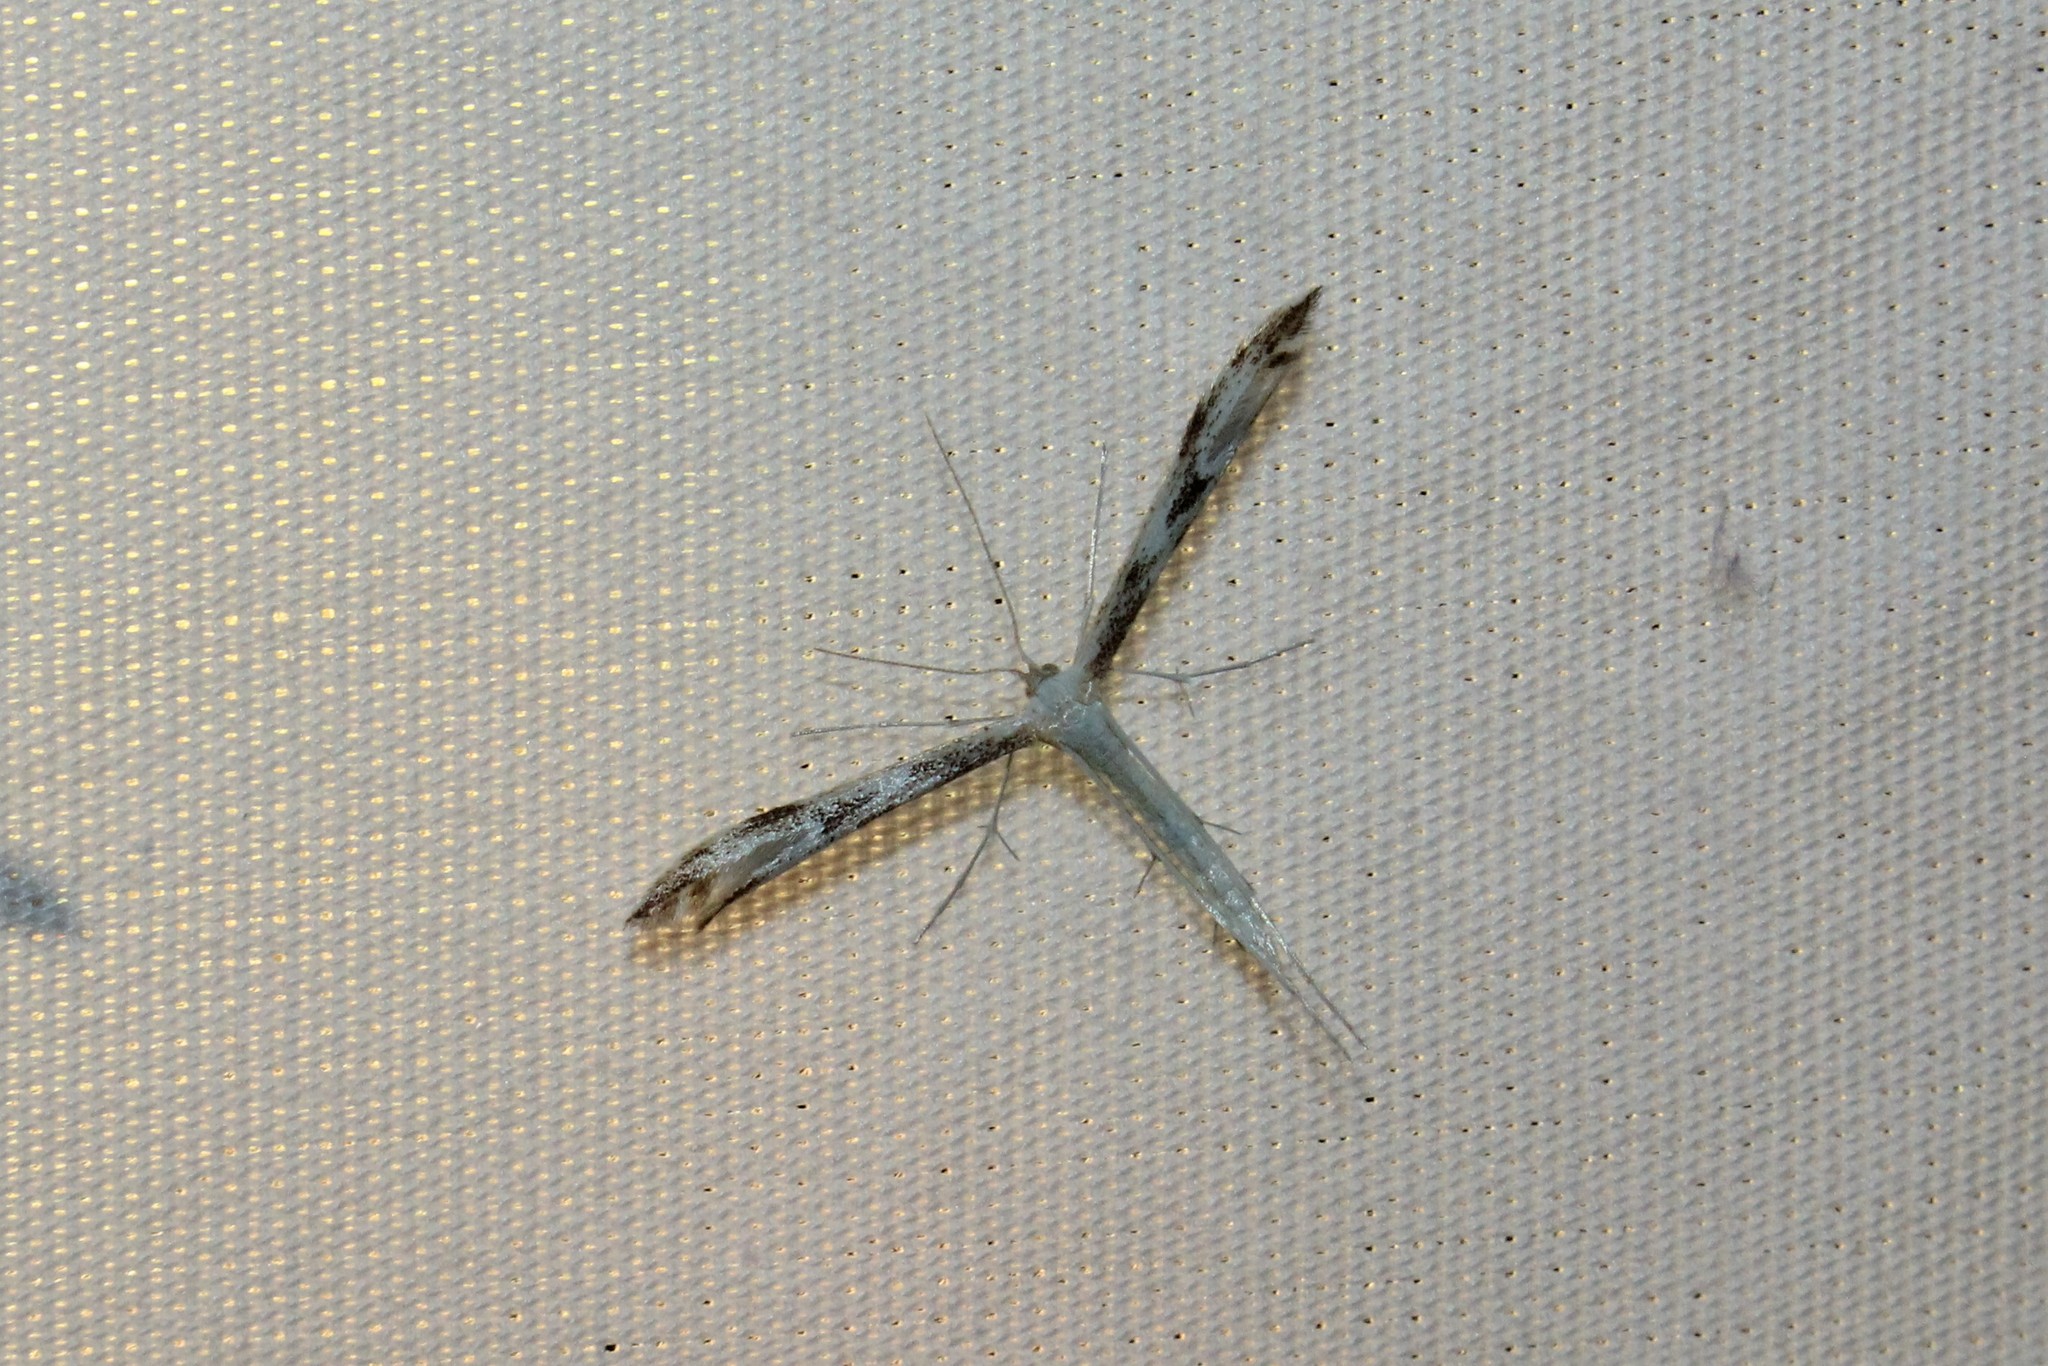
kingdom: Animalia
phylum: Arthropoda
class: Insecta
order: Lepidoptera
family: Pterophoridae
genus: Adaina
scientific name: Adaina montanus
